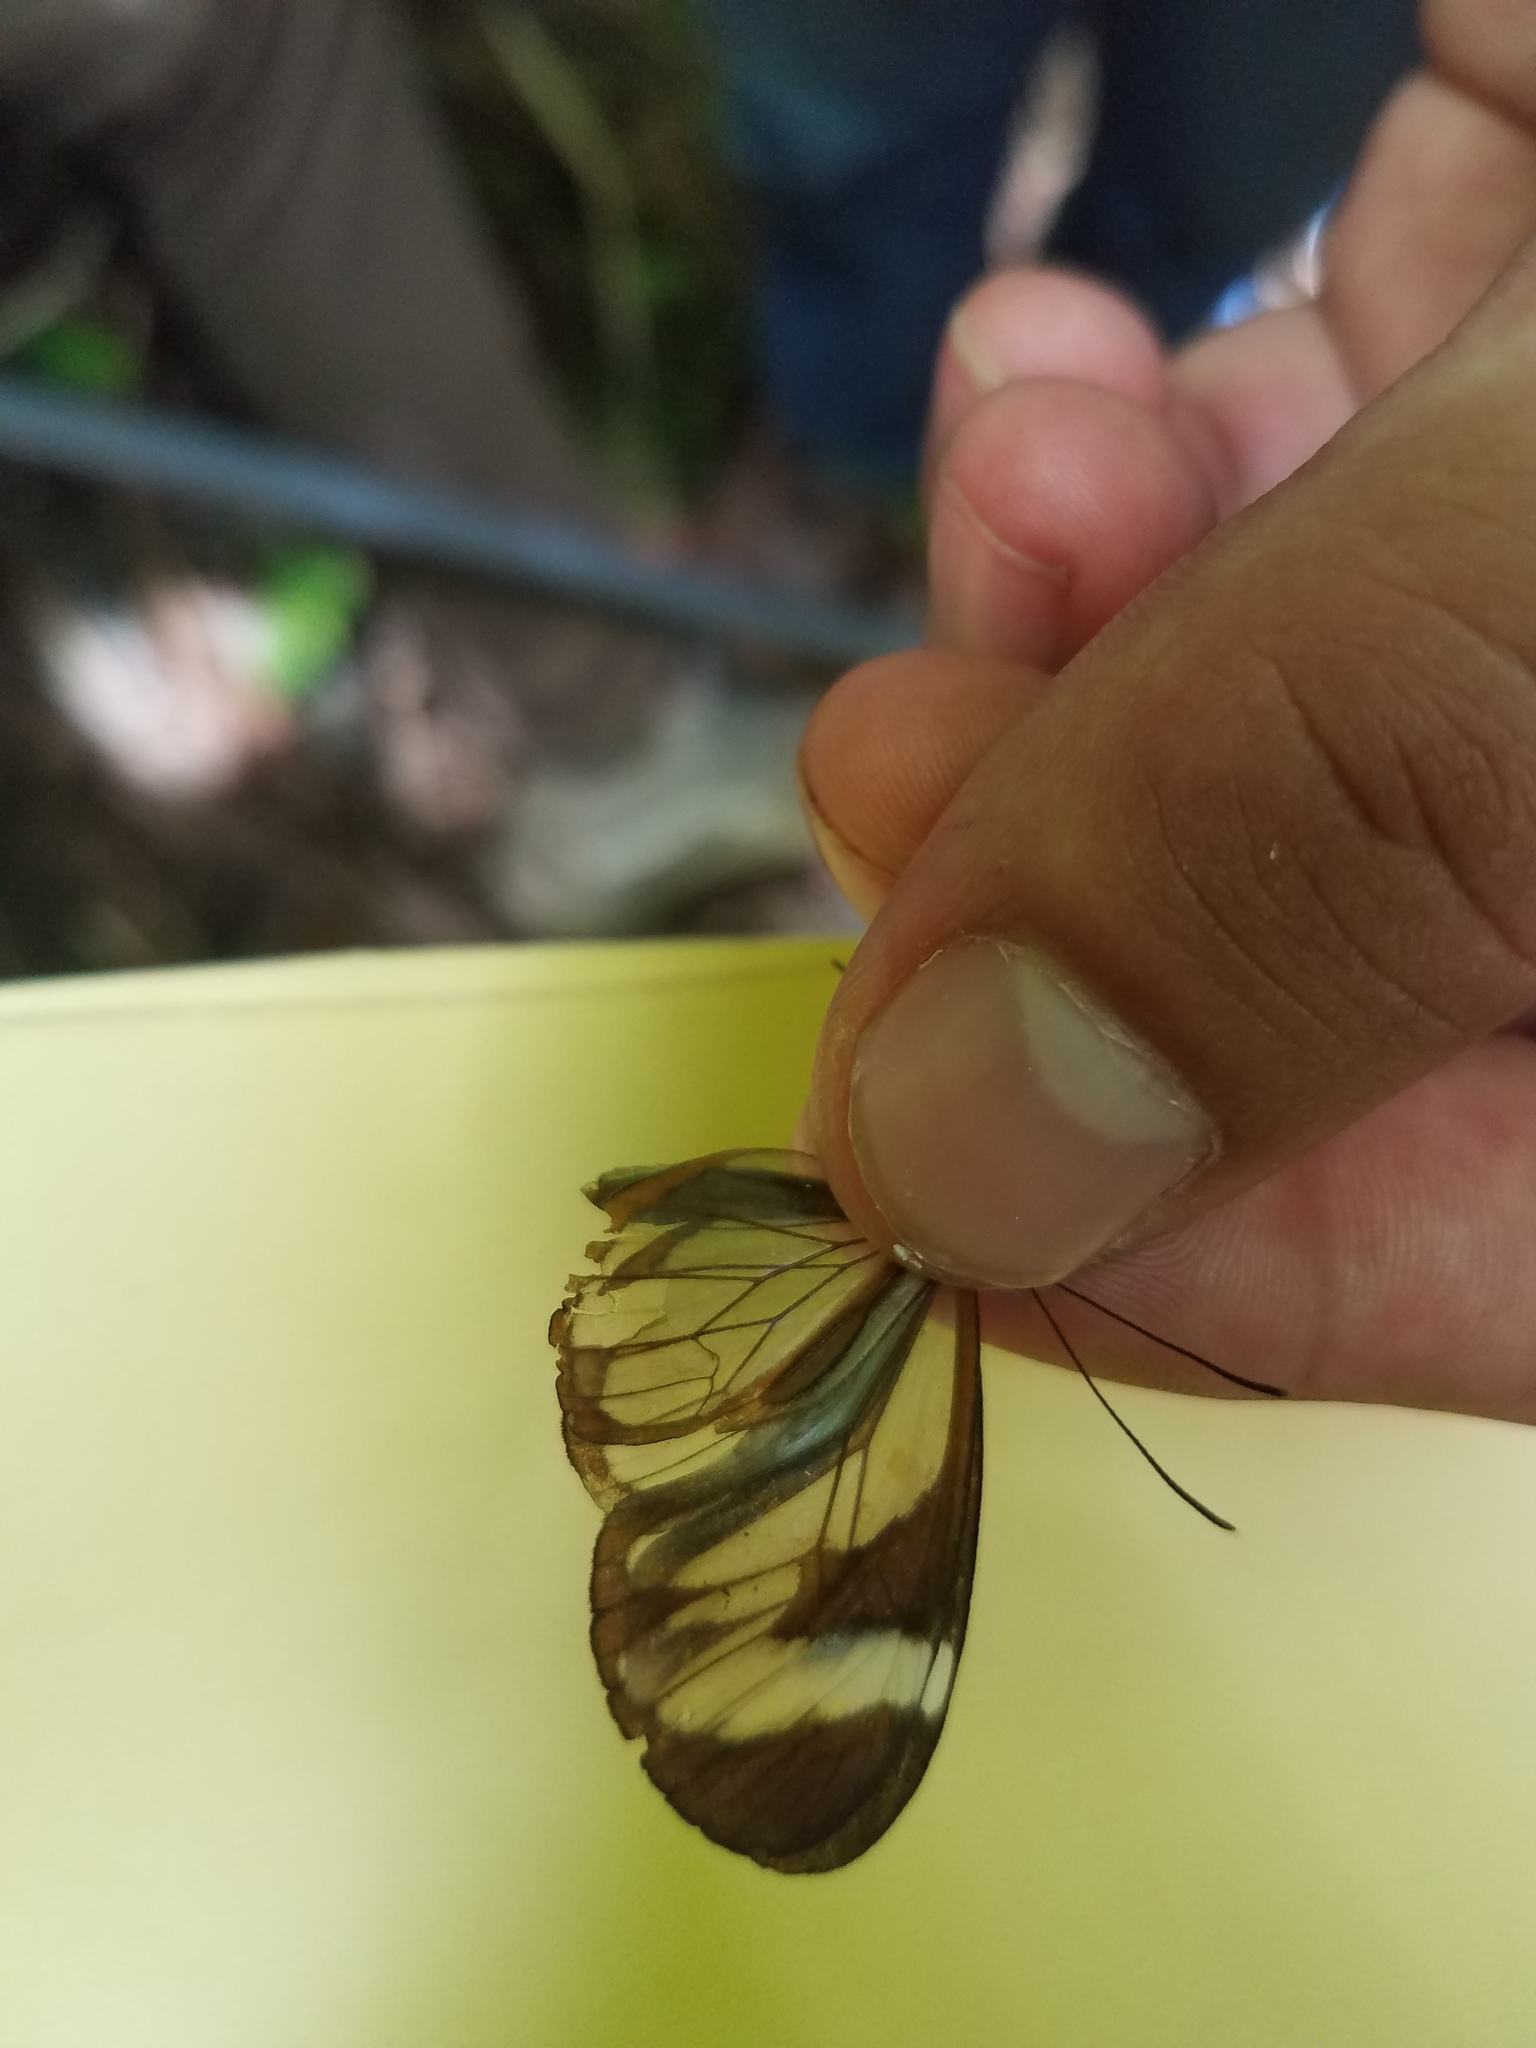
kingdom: Animalia
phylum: Arthropoda
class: Insecta
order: Lepidoptera
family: Nymphalidae
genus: Ithomia
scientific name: Ithomia patilla
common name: Patilla clearwing
